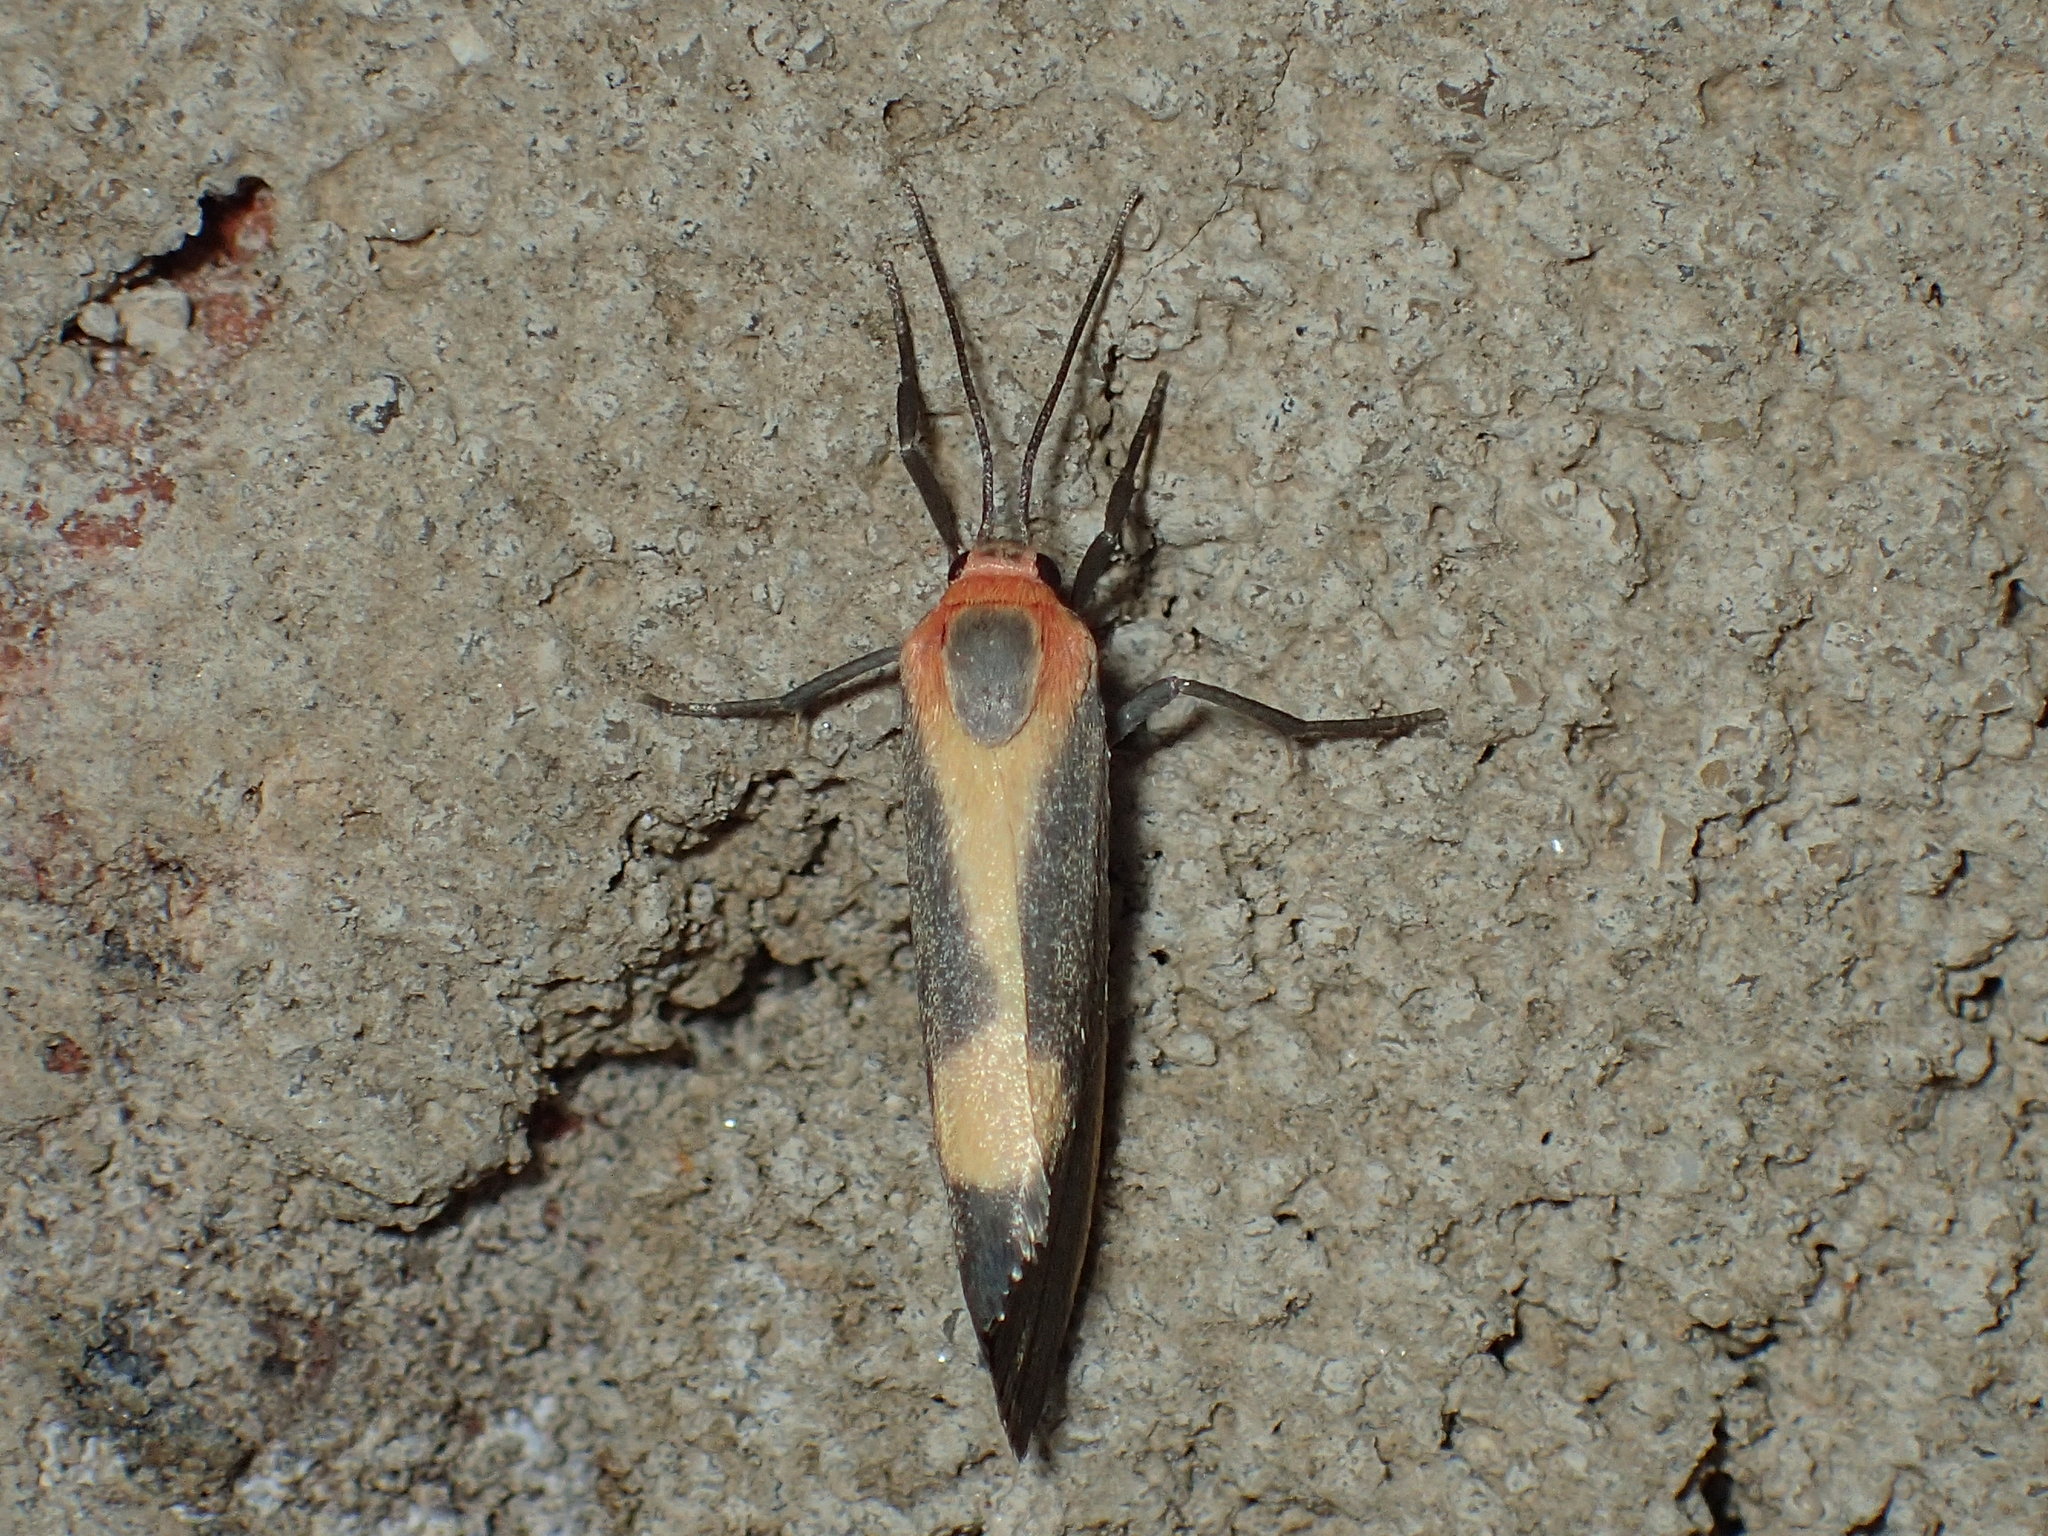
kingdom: Animalia
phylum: Arthropoda
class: Insecta
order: Lepidoptera
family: Erebidae
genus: Cisthene
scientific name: Cisthene plumbea
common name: Lead colored lichen moth
